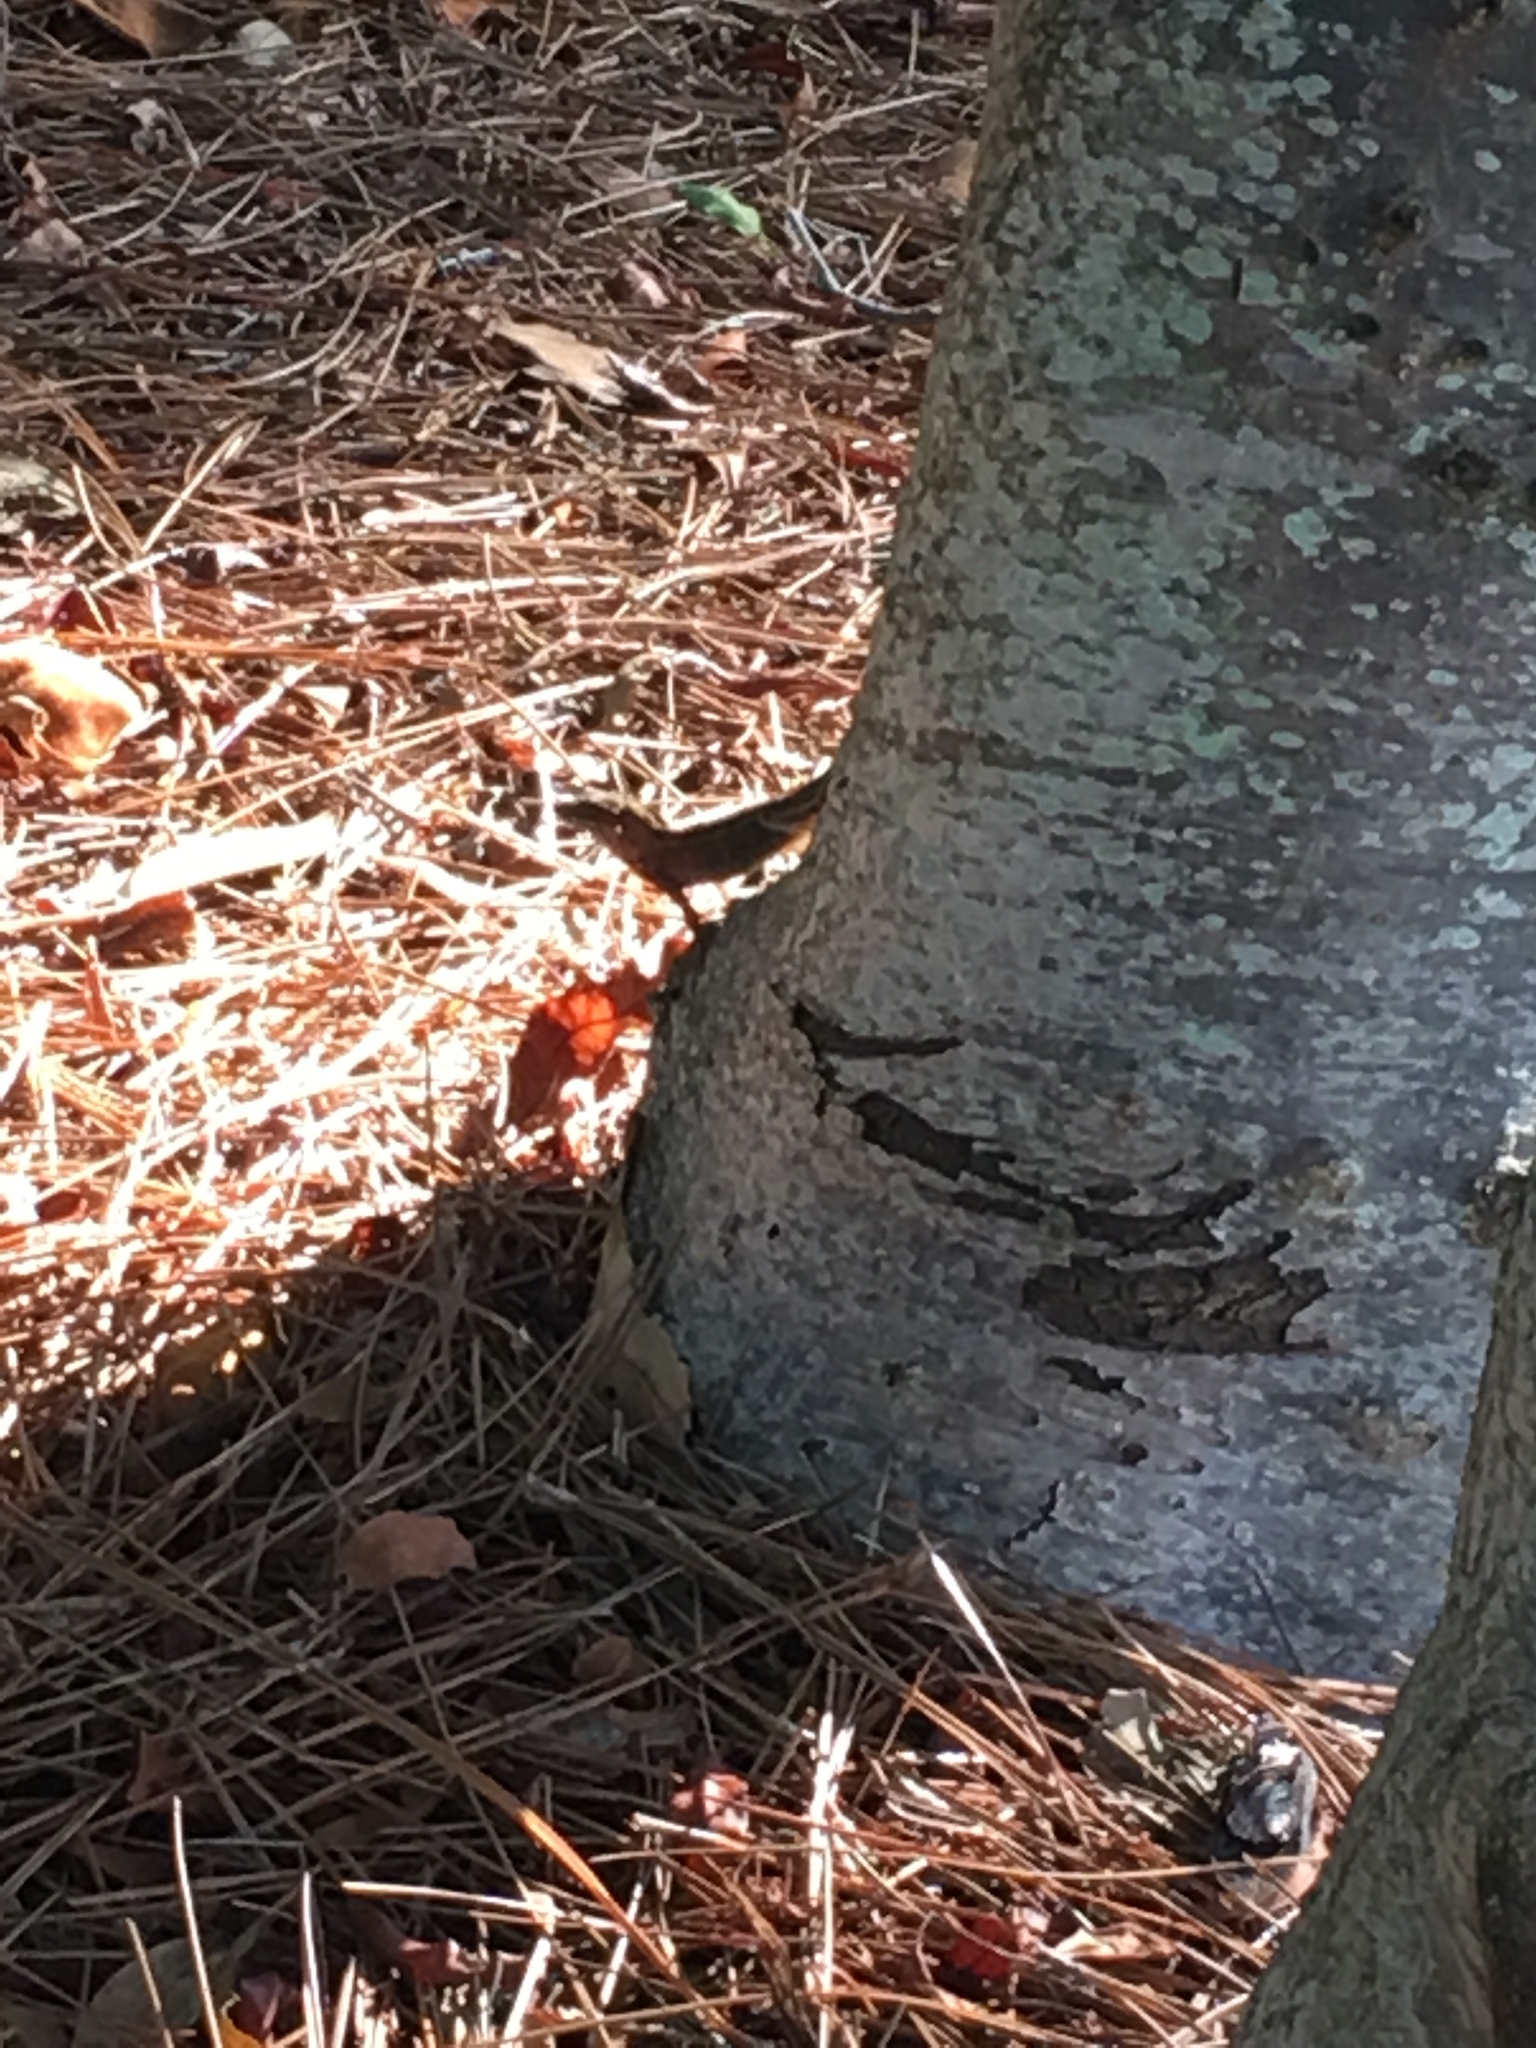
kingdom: Animalia
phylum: Chordata
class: Squamata
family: Dactyloidae
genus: Anolis
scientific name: Anolis sagrei
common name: Brown anole
